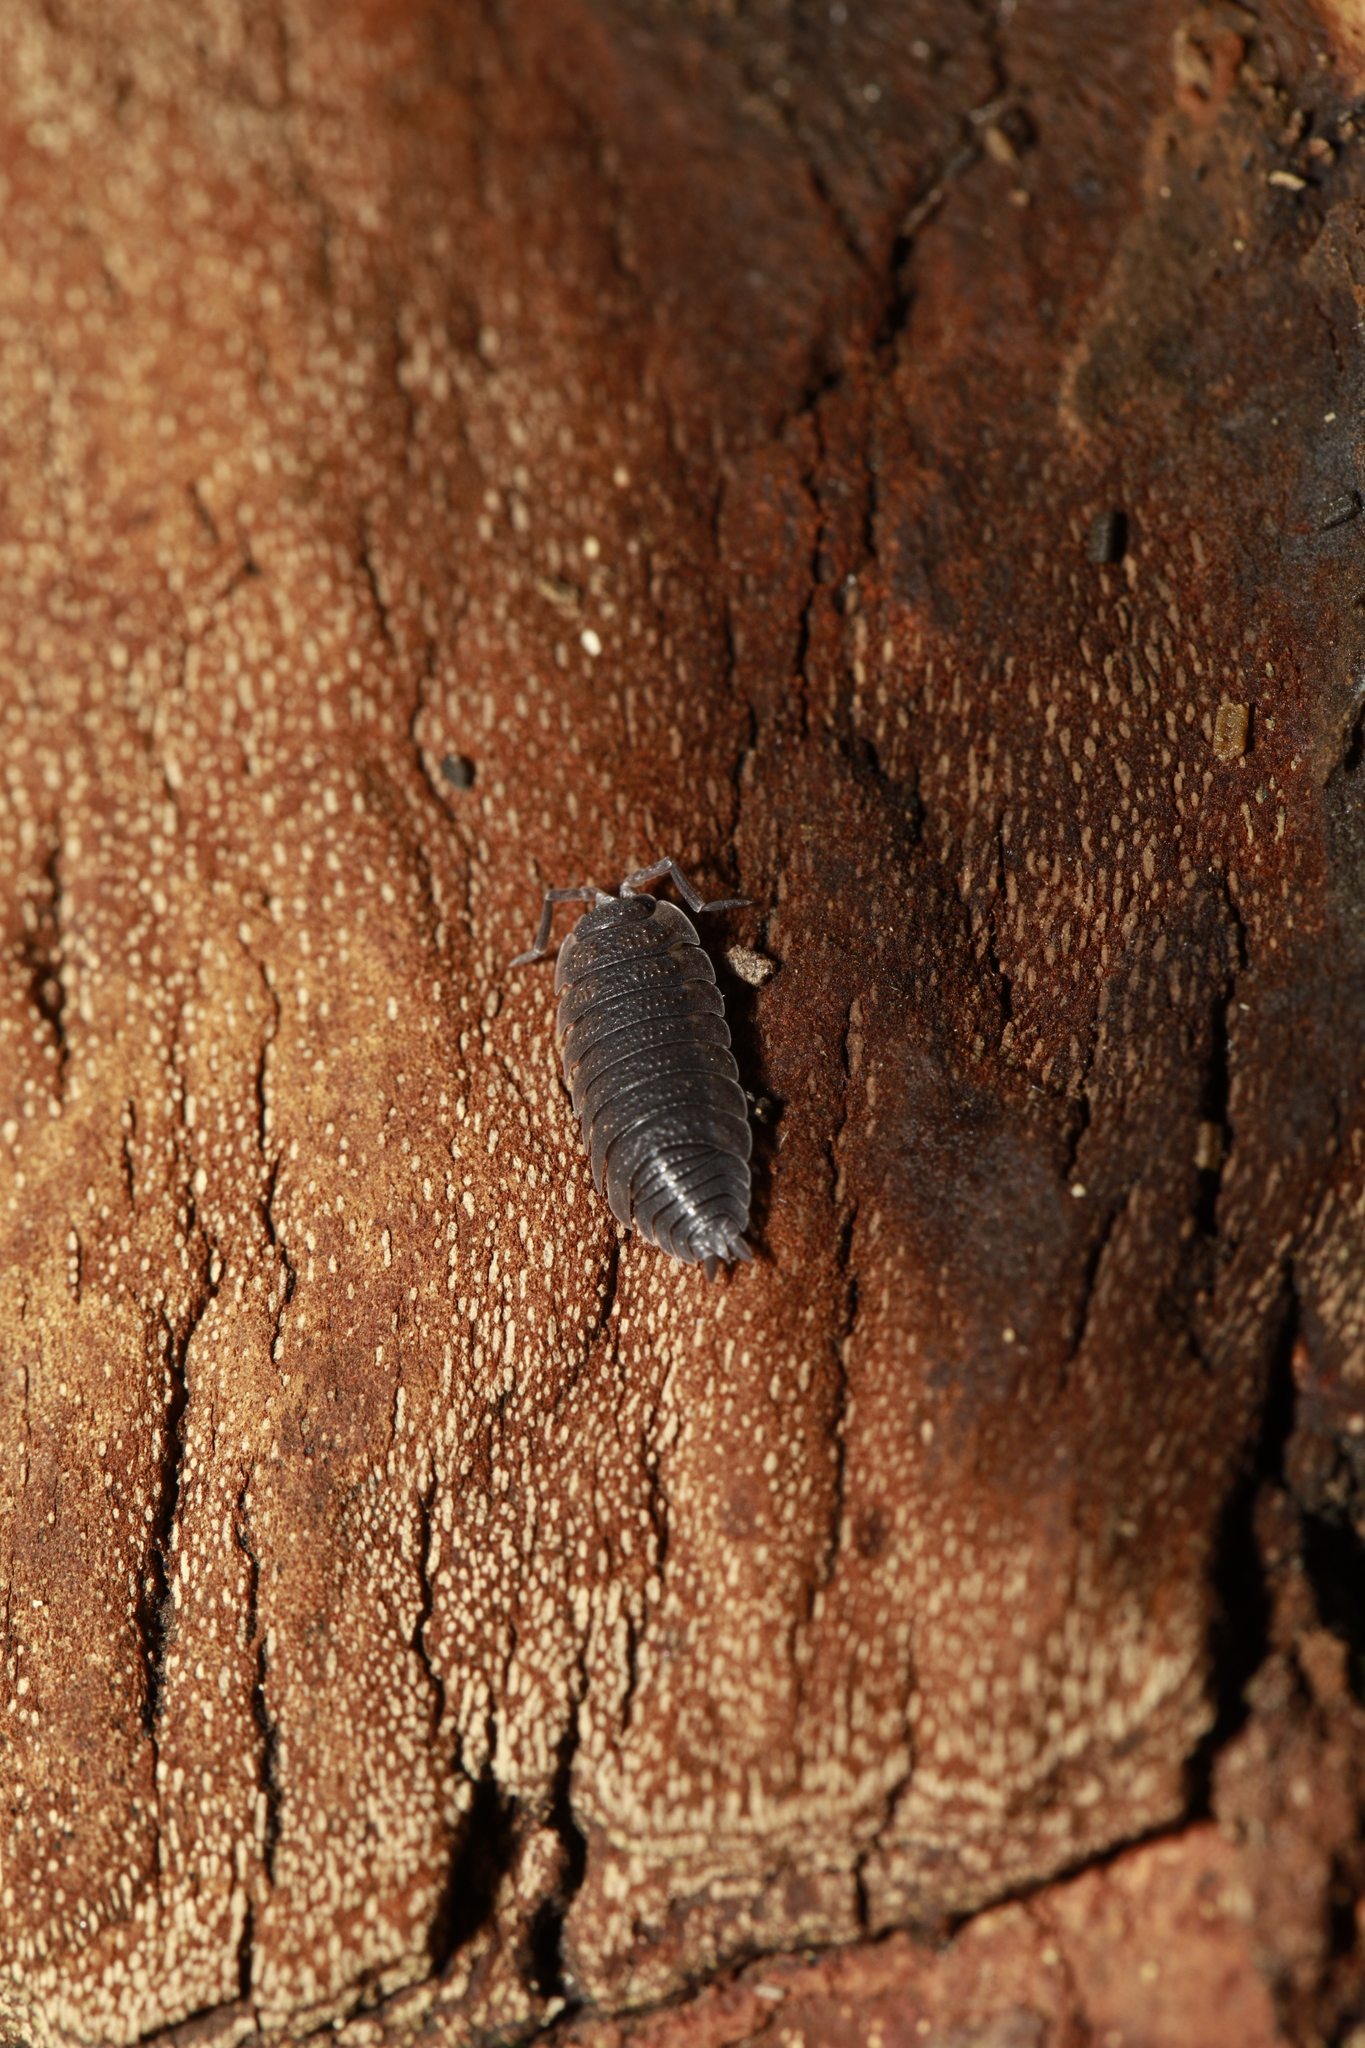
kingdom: Animalia
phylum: Arthropoda
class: Malacostraca
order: Isopoda
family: Porcellionidae
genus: Porcellio
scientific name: Porcellio scaber
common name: Common rough woodlouse
